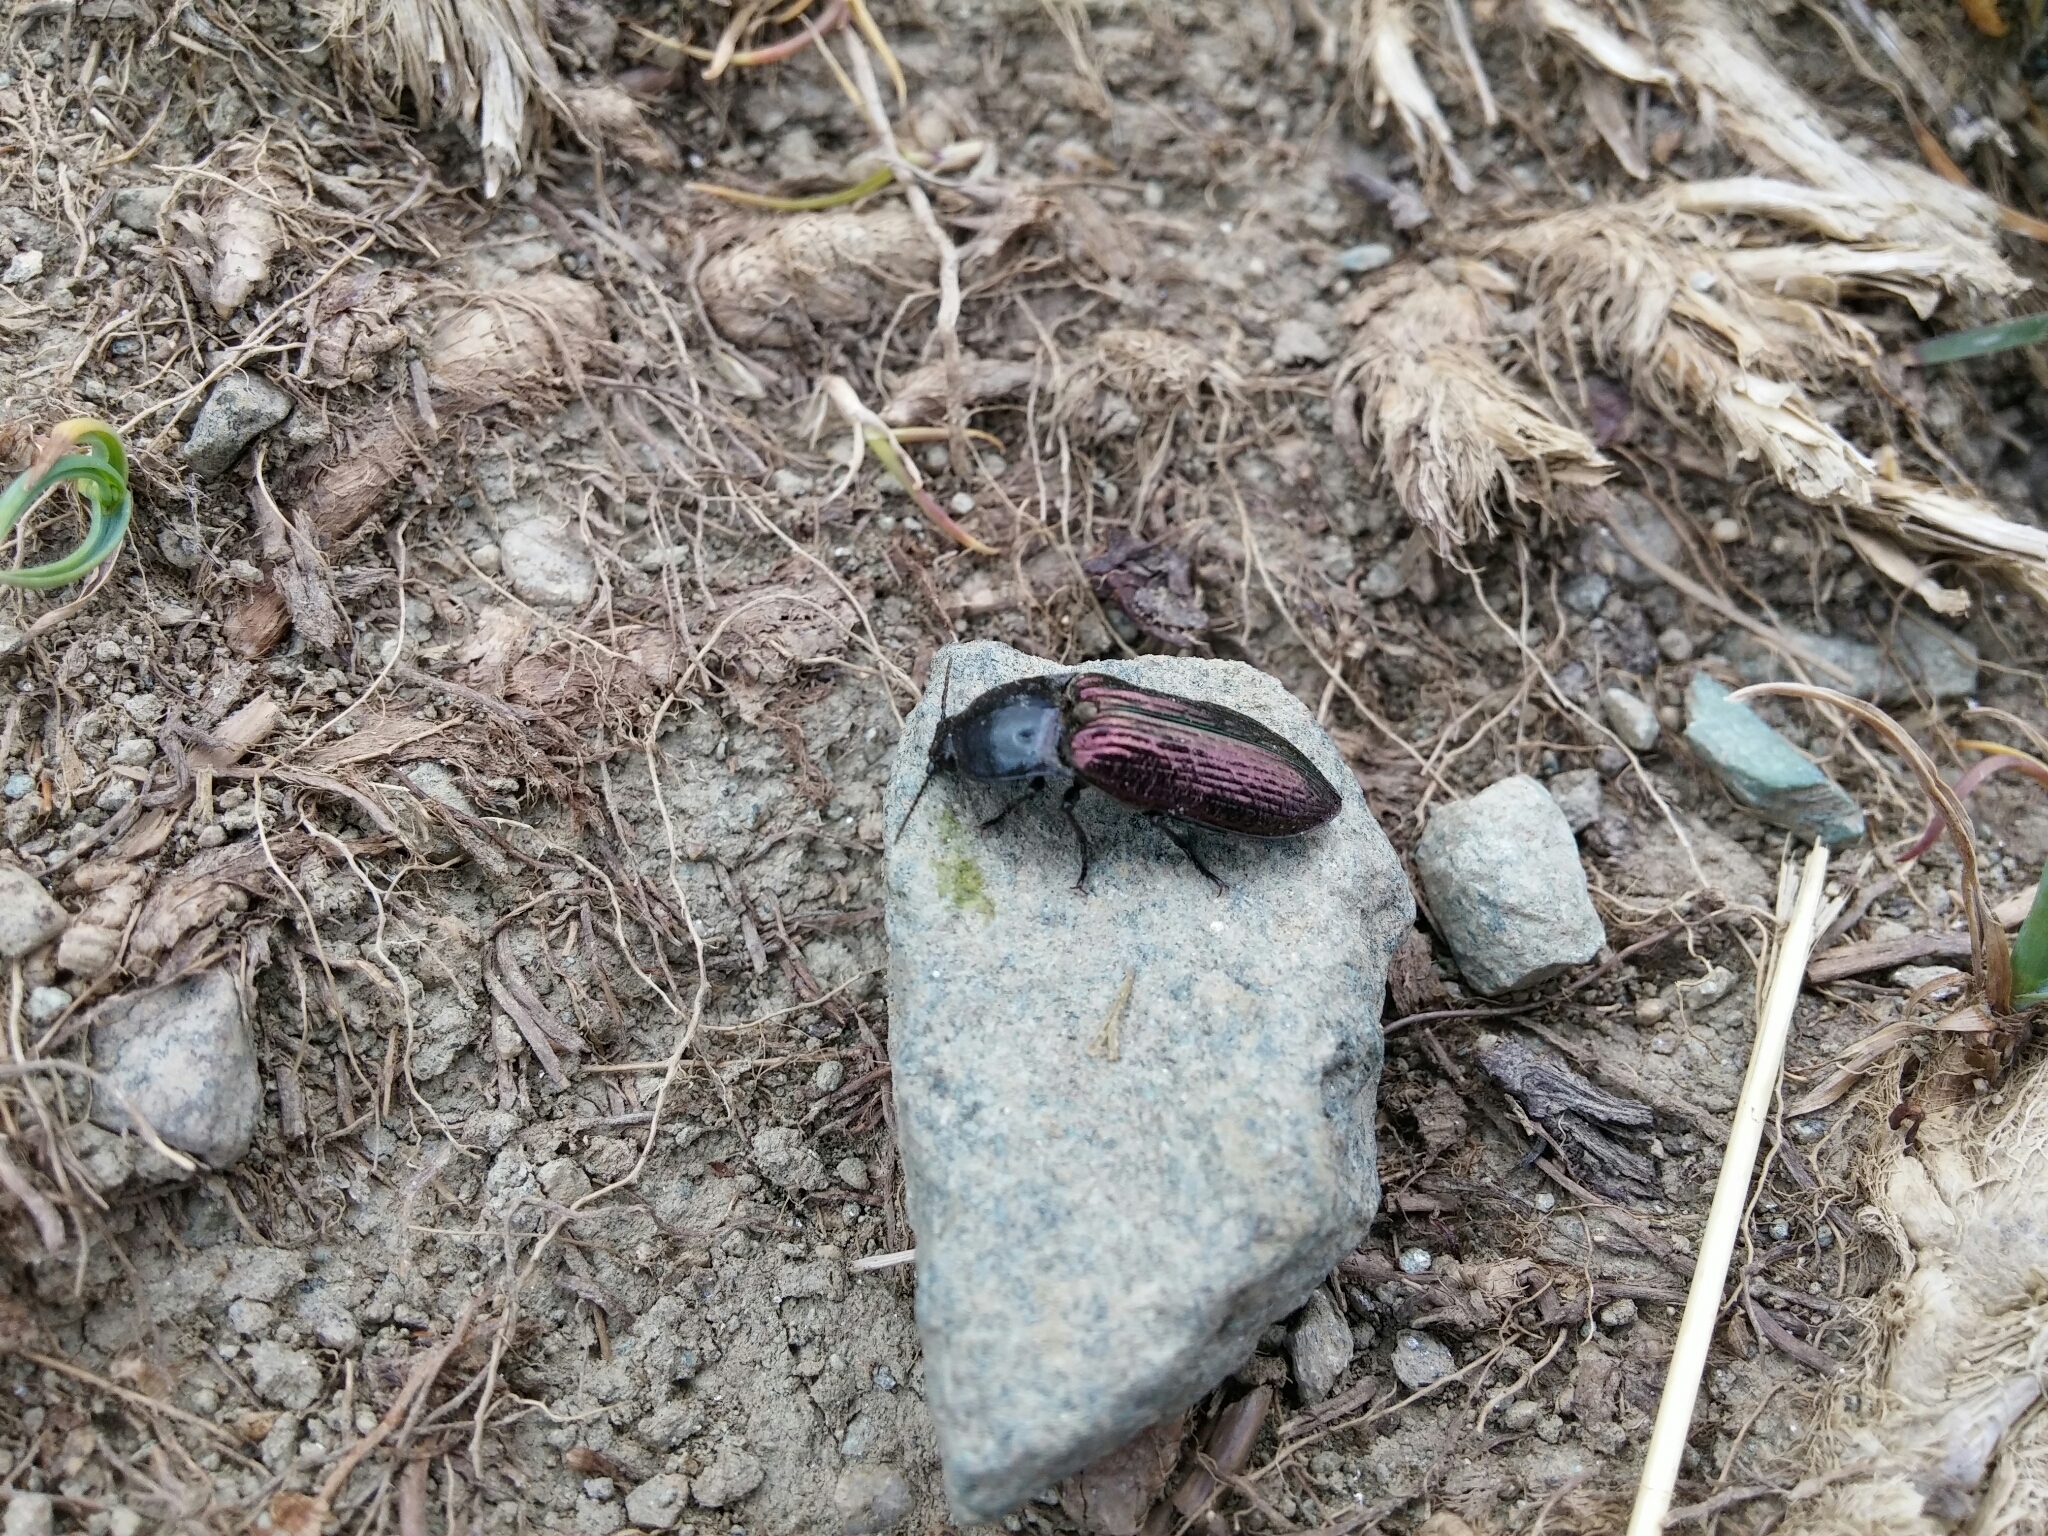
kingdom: Animalia
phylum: Arthropoda
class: Insecta
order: Coleoptera
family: Elateridae
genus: Selatosomus
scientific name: Selatosomus confluens
